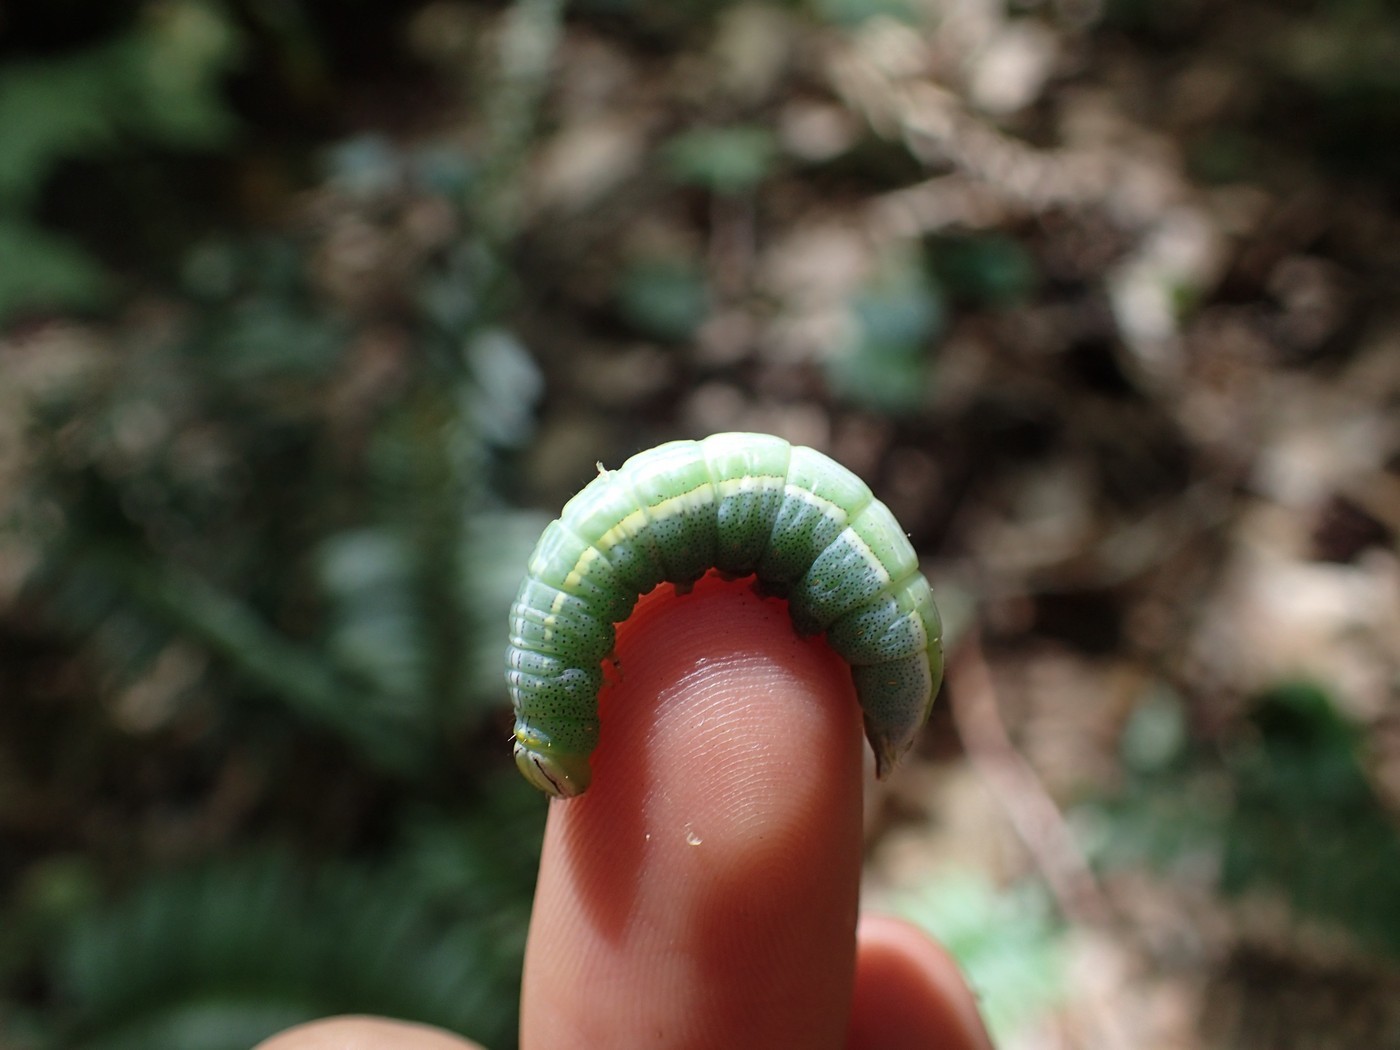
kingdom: Animalia
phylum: Arthropoda
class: Insecta
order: Lepidoptera
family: Notodontidae
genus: Disphragis
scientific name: Disphragis Cecrita guttivitta
